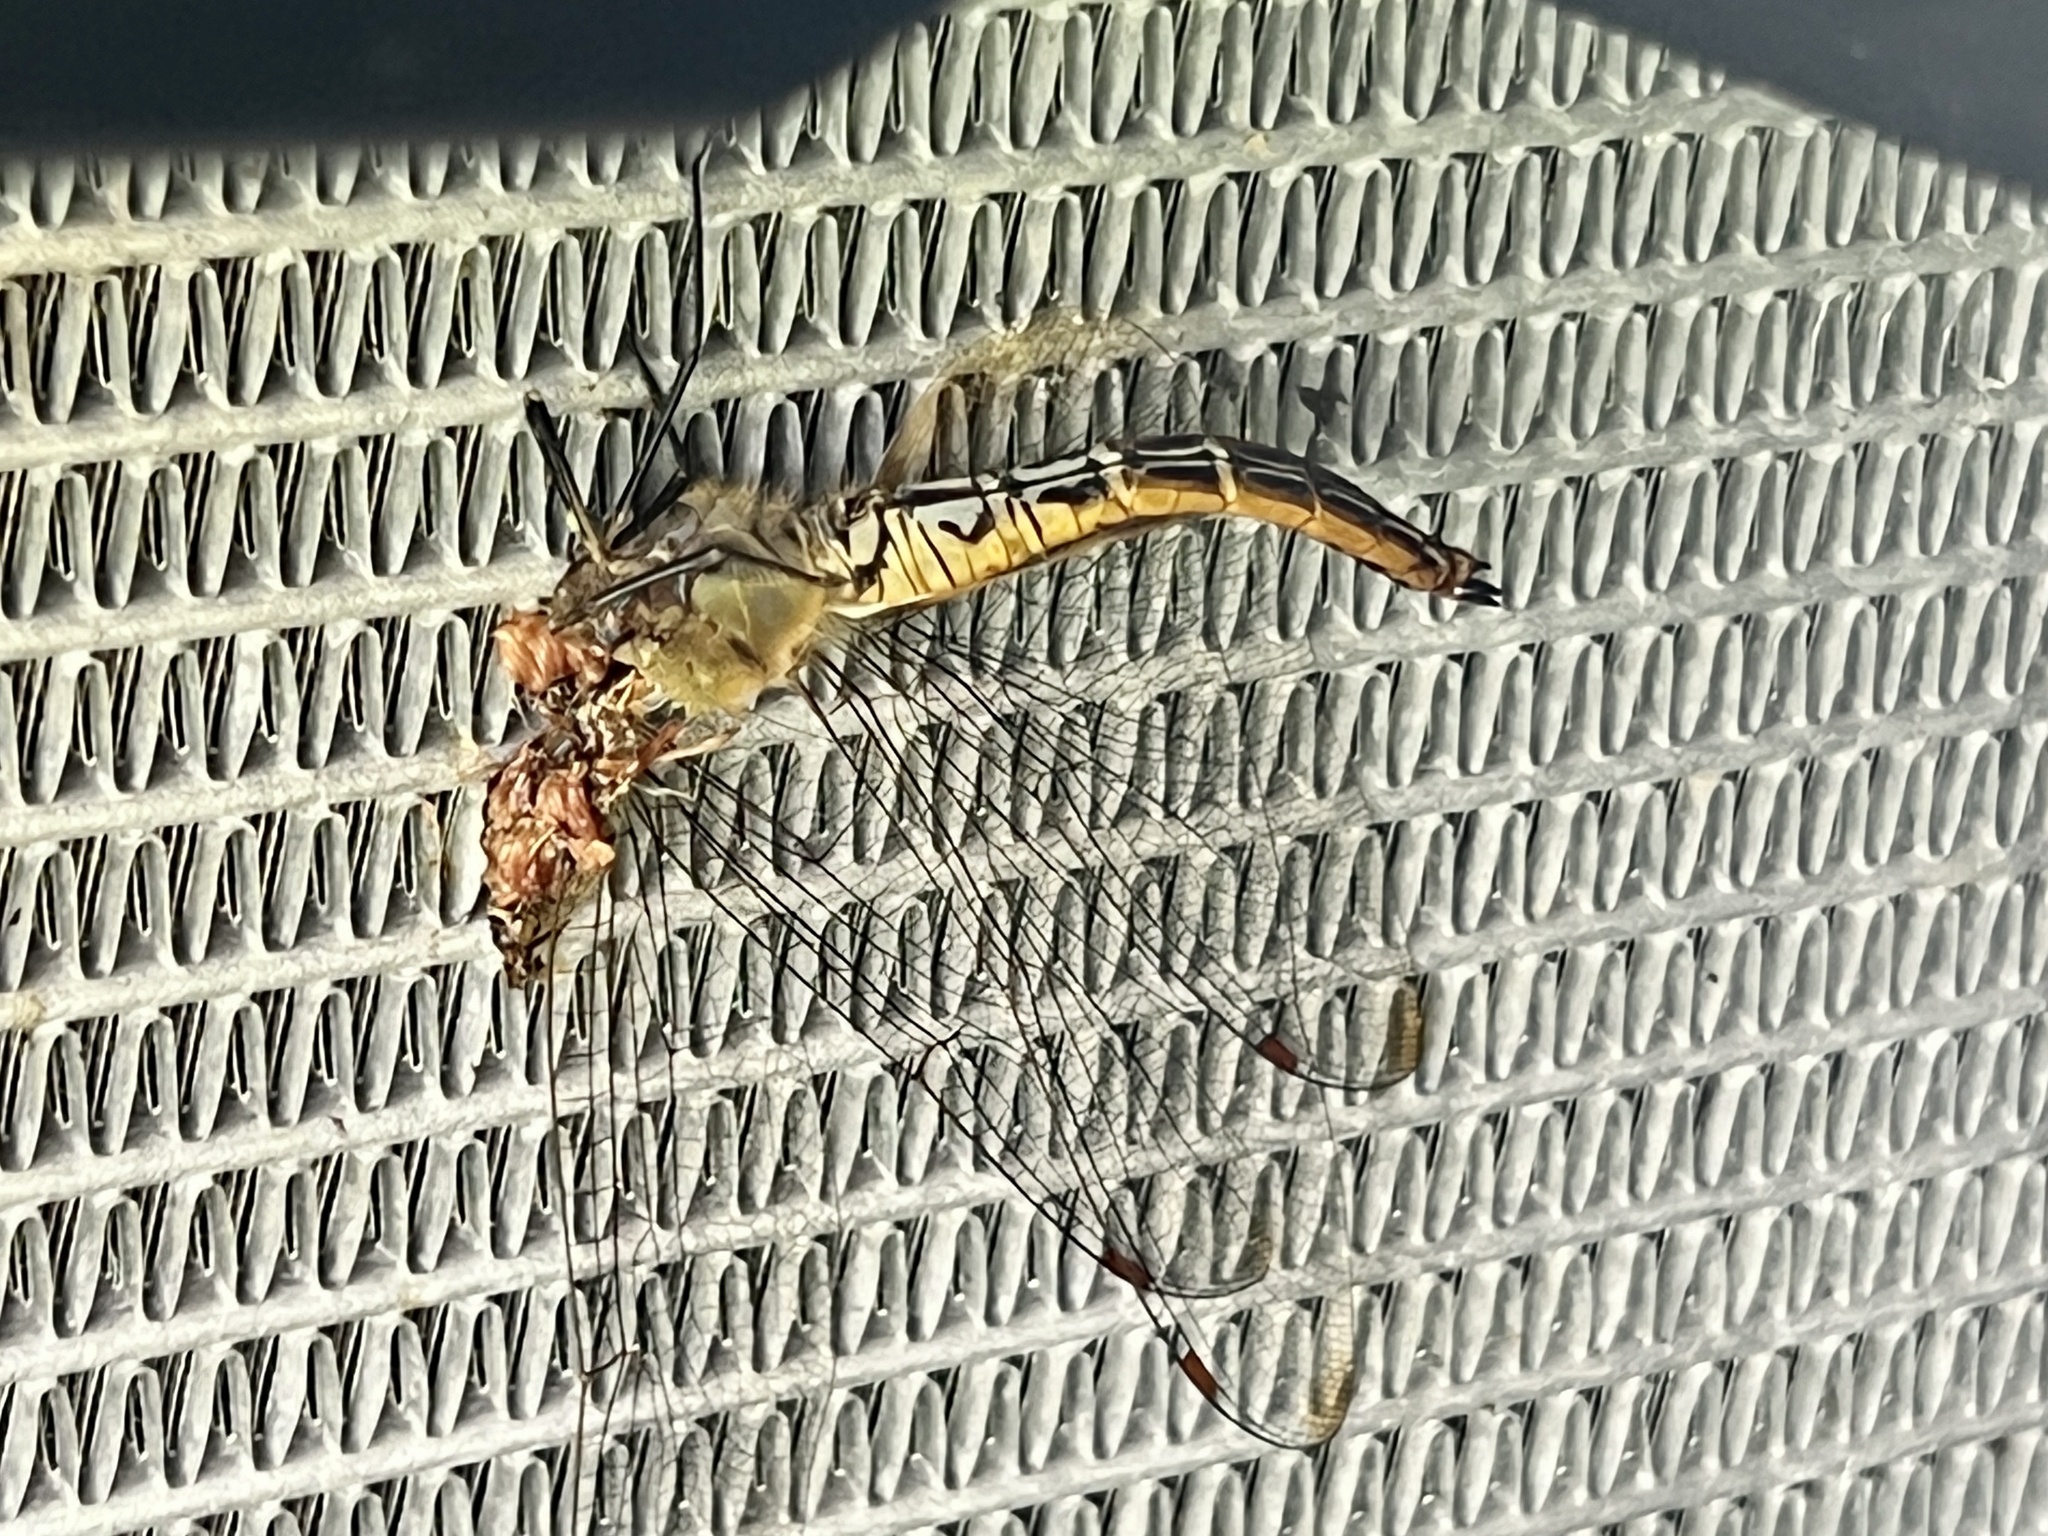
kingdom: Animalia
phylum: Arthropoda
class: Insecta
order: Odonata
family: Libellulidae
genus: Pantala
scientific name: Pantala flavescens
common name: Wandering glider
